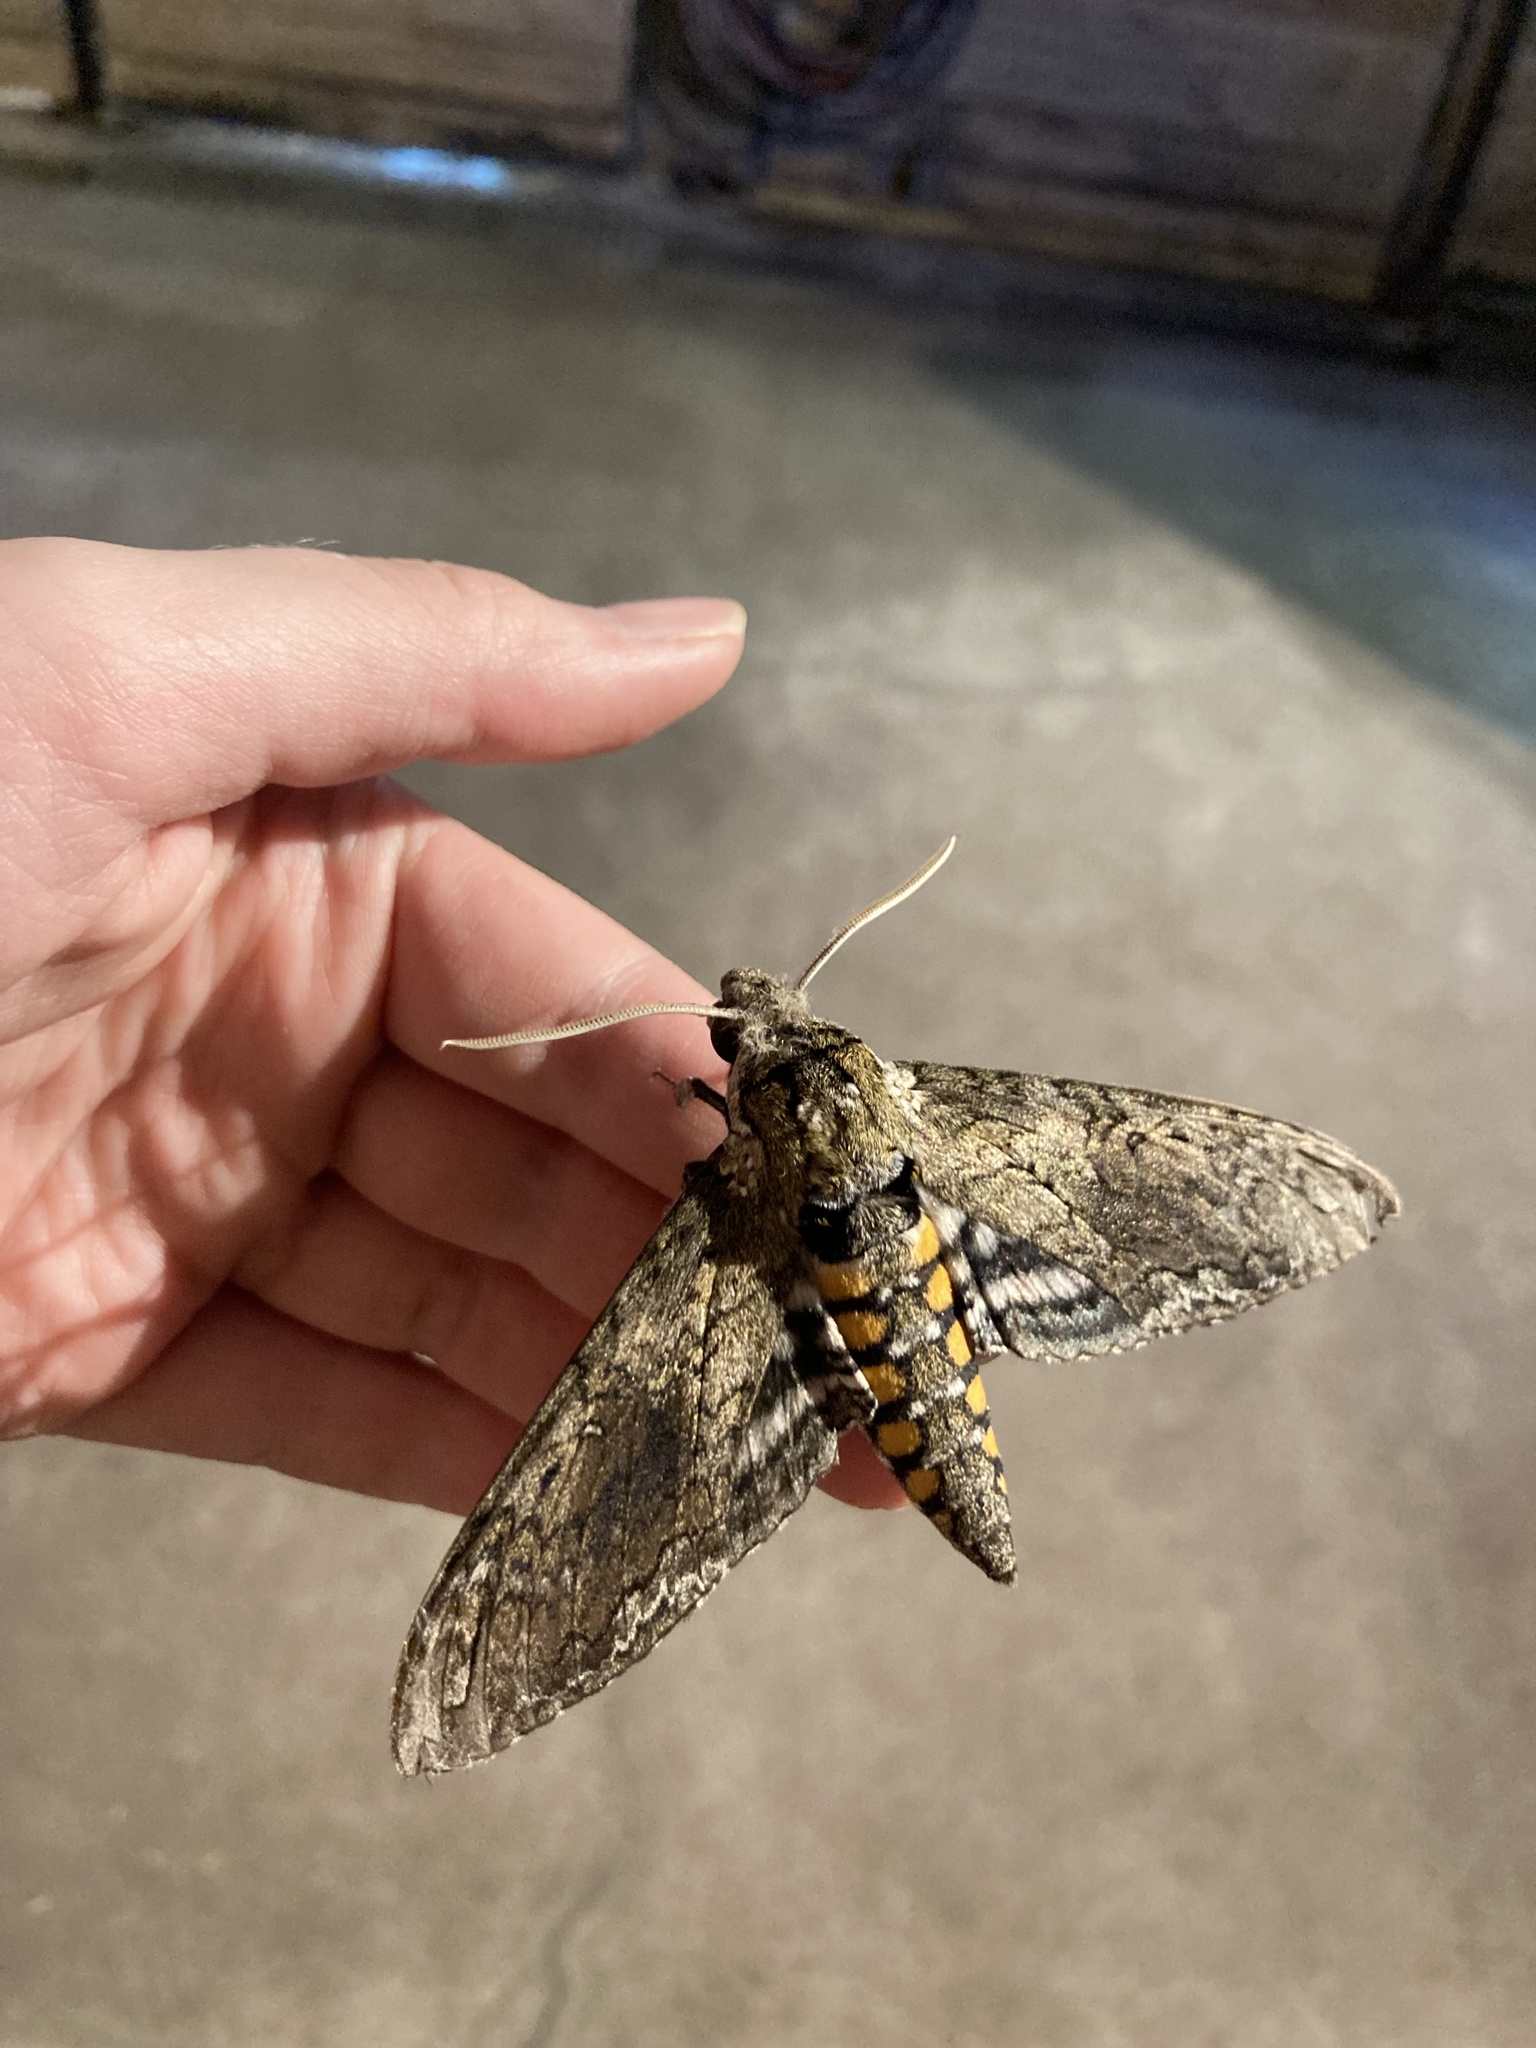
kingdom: Animalia
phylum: Arthropoda
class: Insecta
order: Lepidoptera
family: Sphingidae
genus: Manduca
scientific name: Manduca sexta
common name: Carolina sphinx
